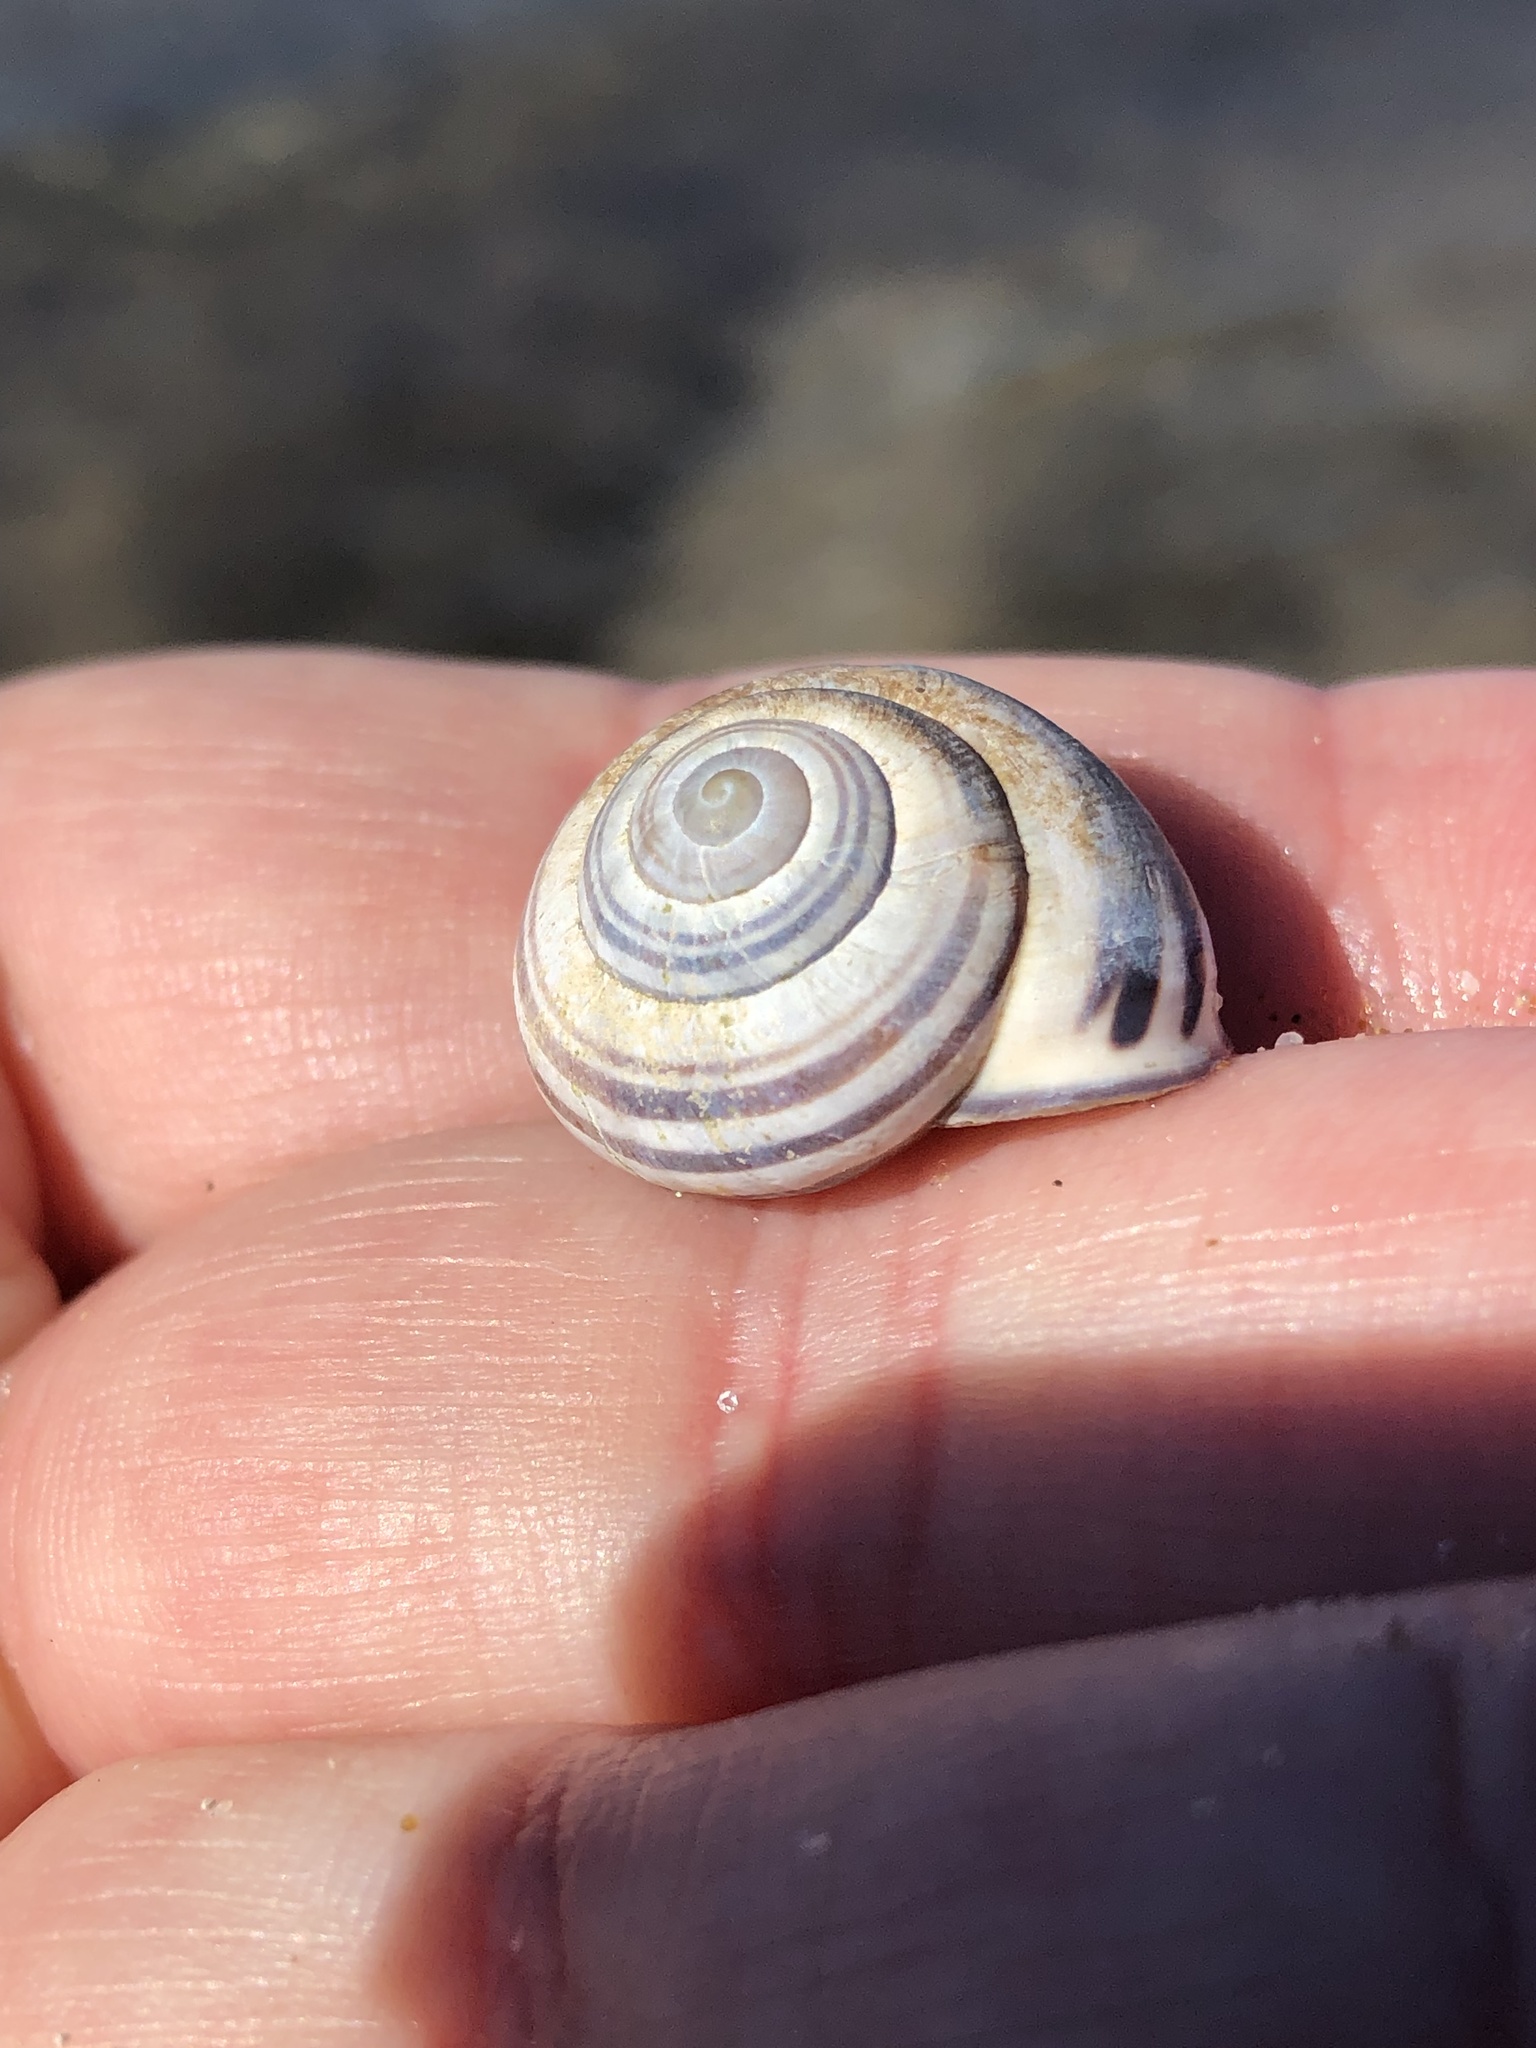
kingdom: Animalia
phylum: Mollusca
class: Gastropoda
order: Stylommatophora
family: Helicidae
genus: Cepaea
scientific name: Cepaea nemoralis
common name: Grovesnail
